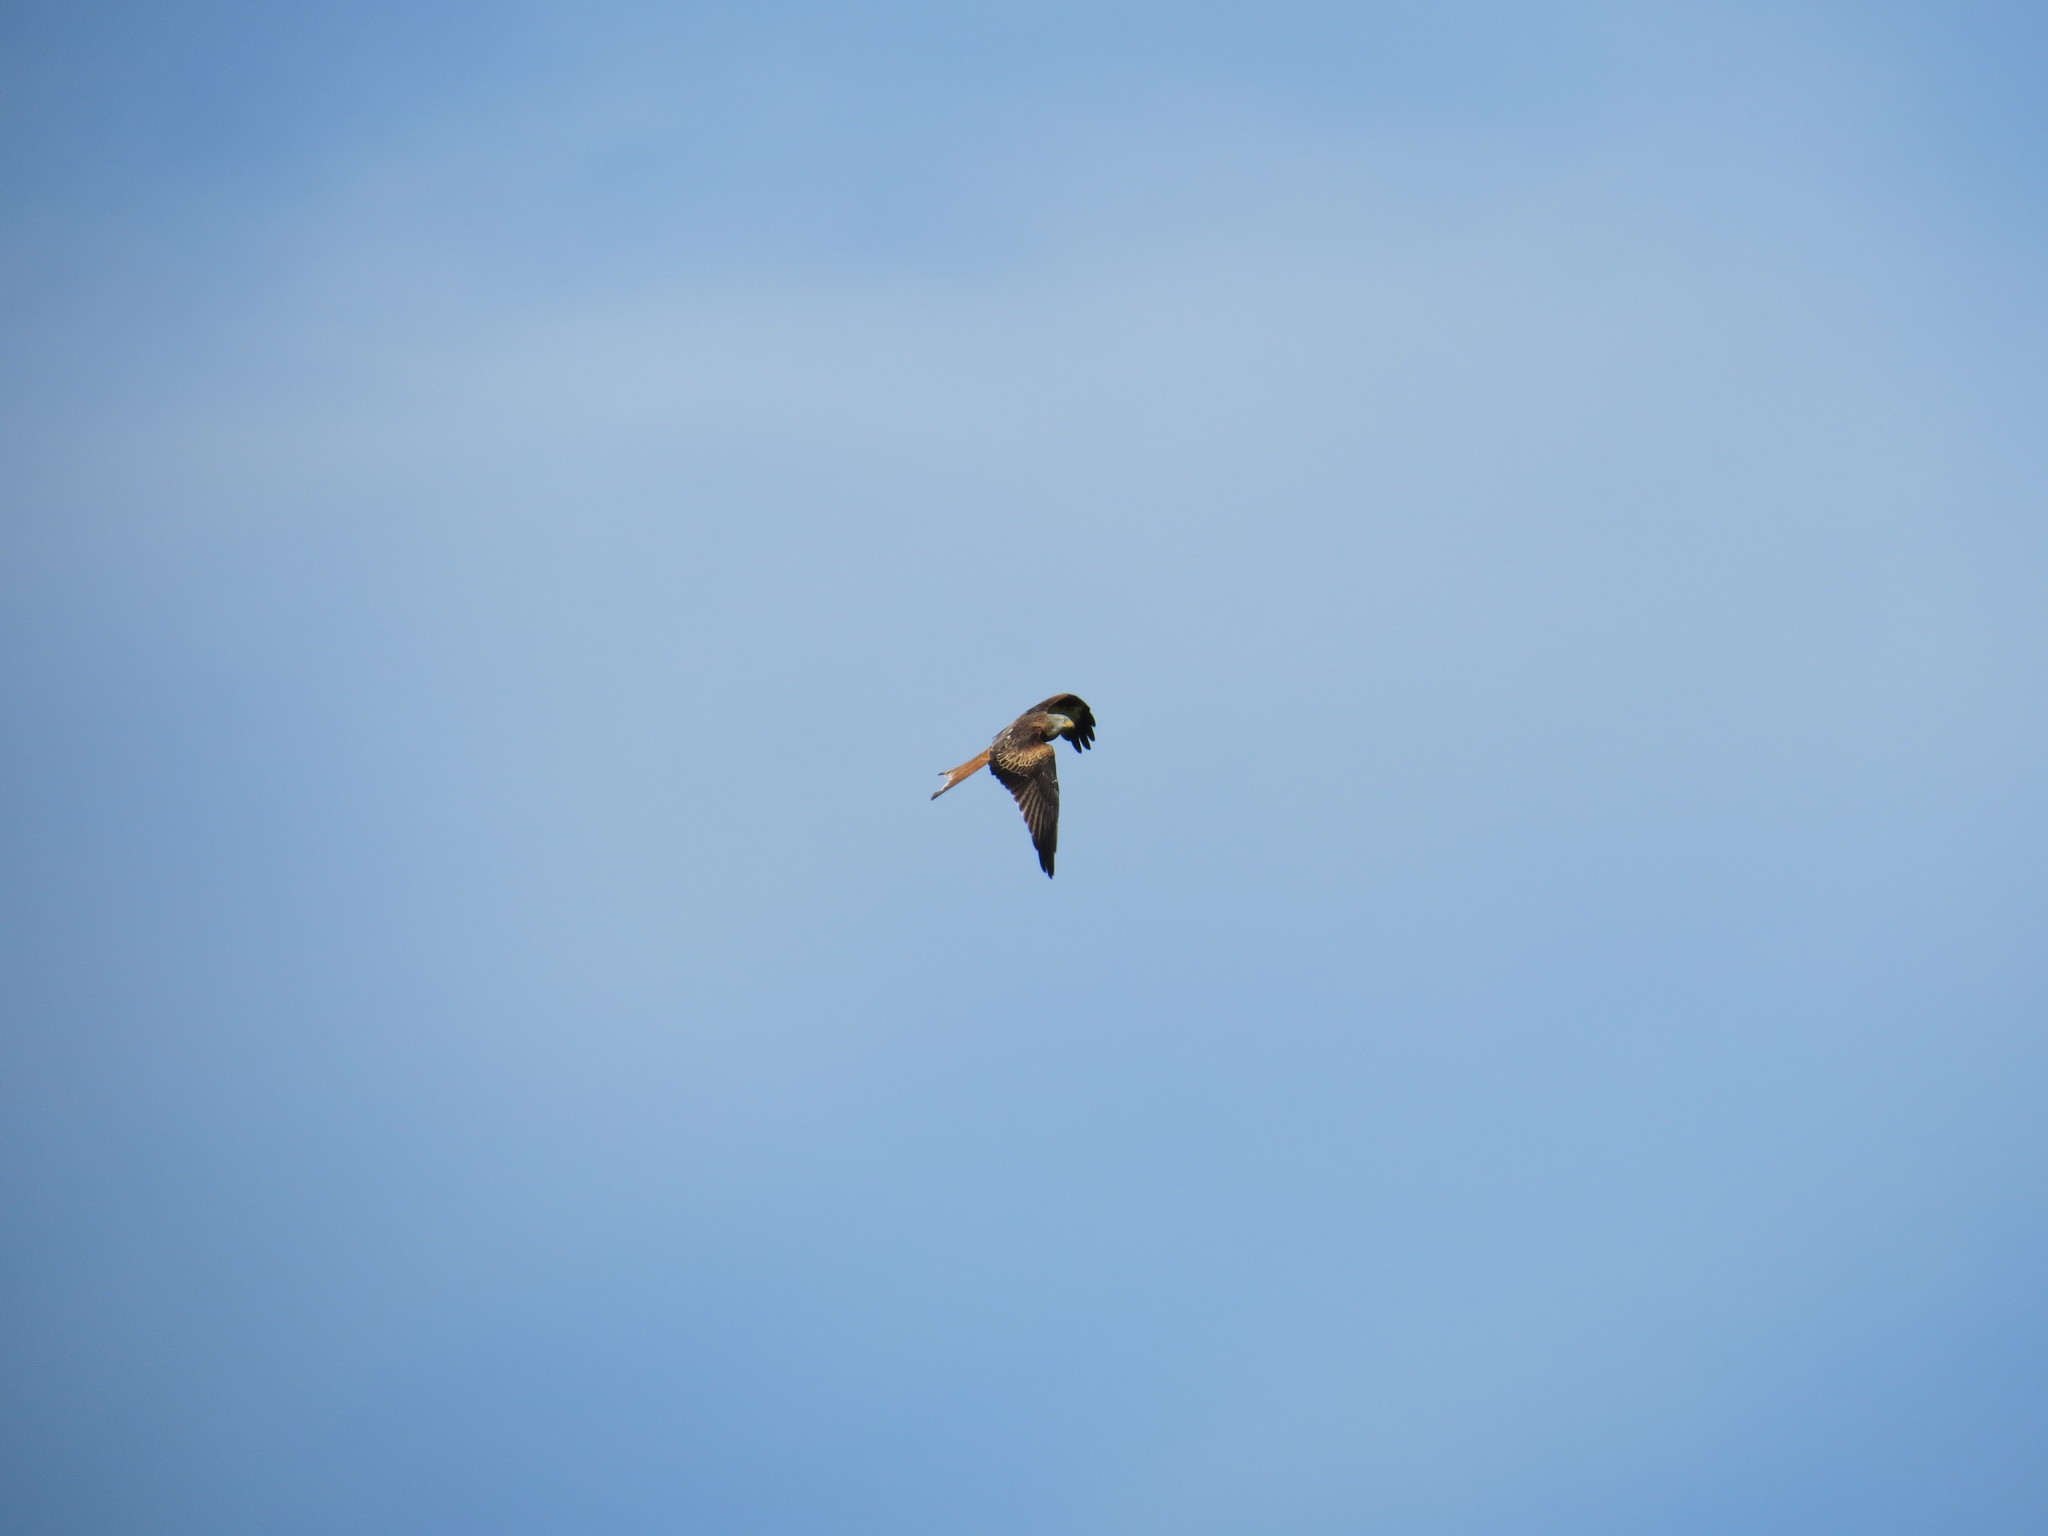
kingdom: Animalia
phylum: Chordata
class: Aves
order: Accipitriformes
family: Accipitridae
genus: Milvus
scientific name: Milvus milvus
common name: Red kite
